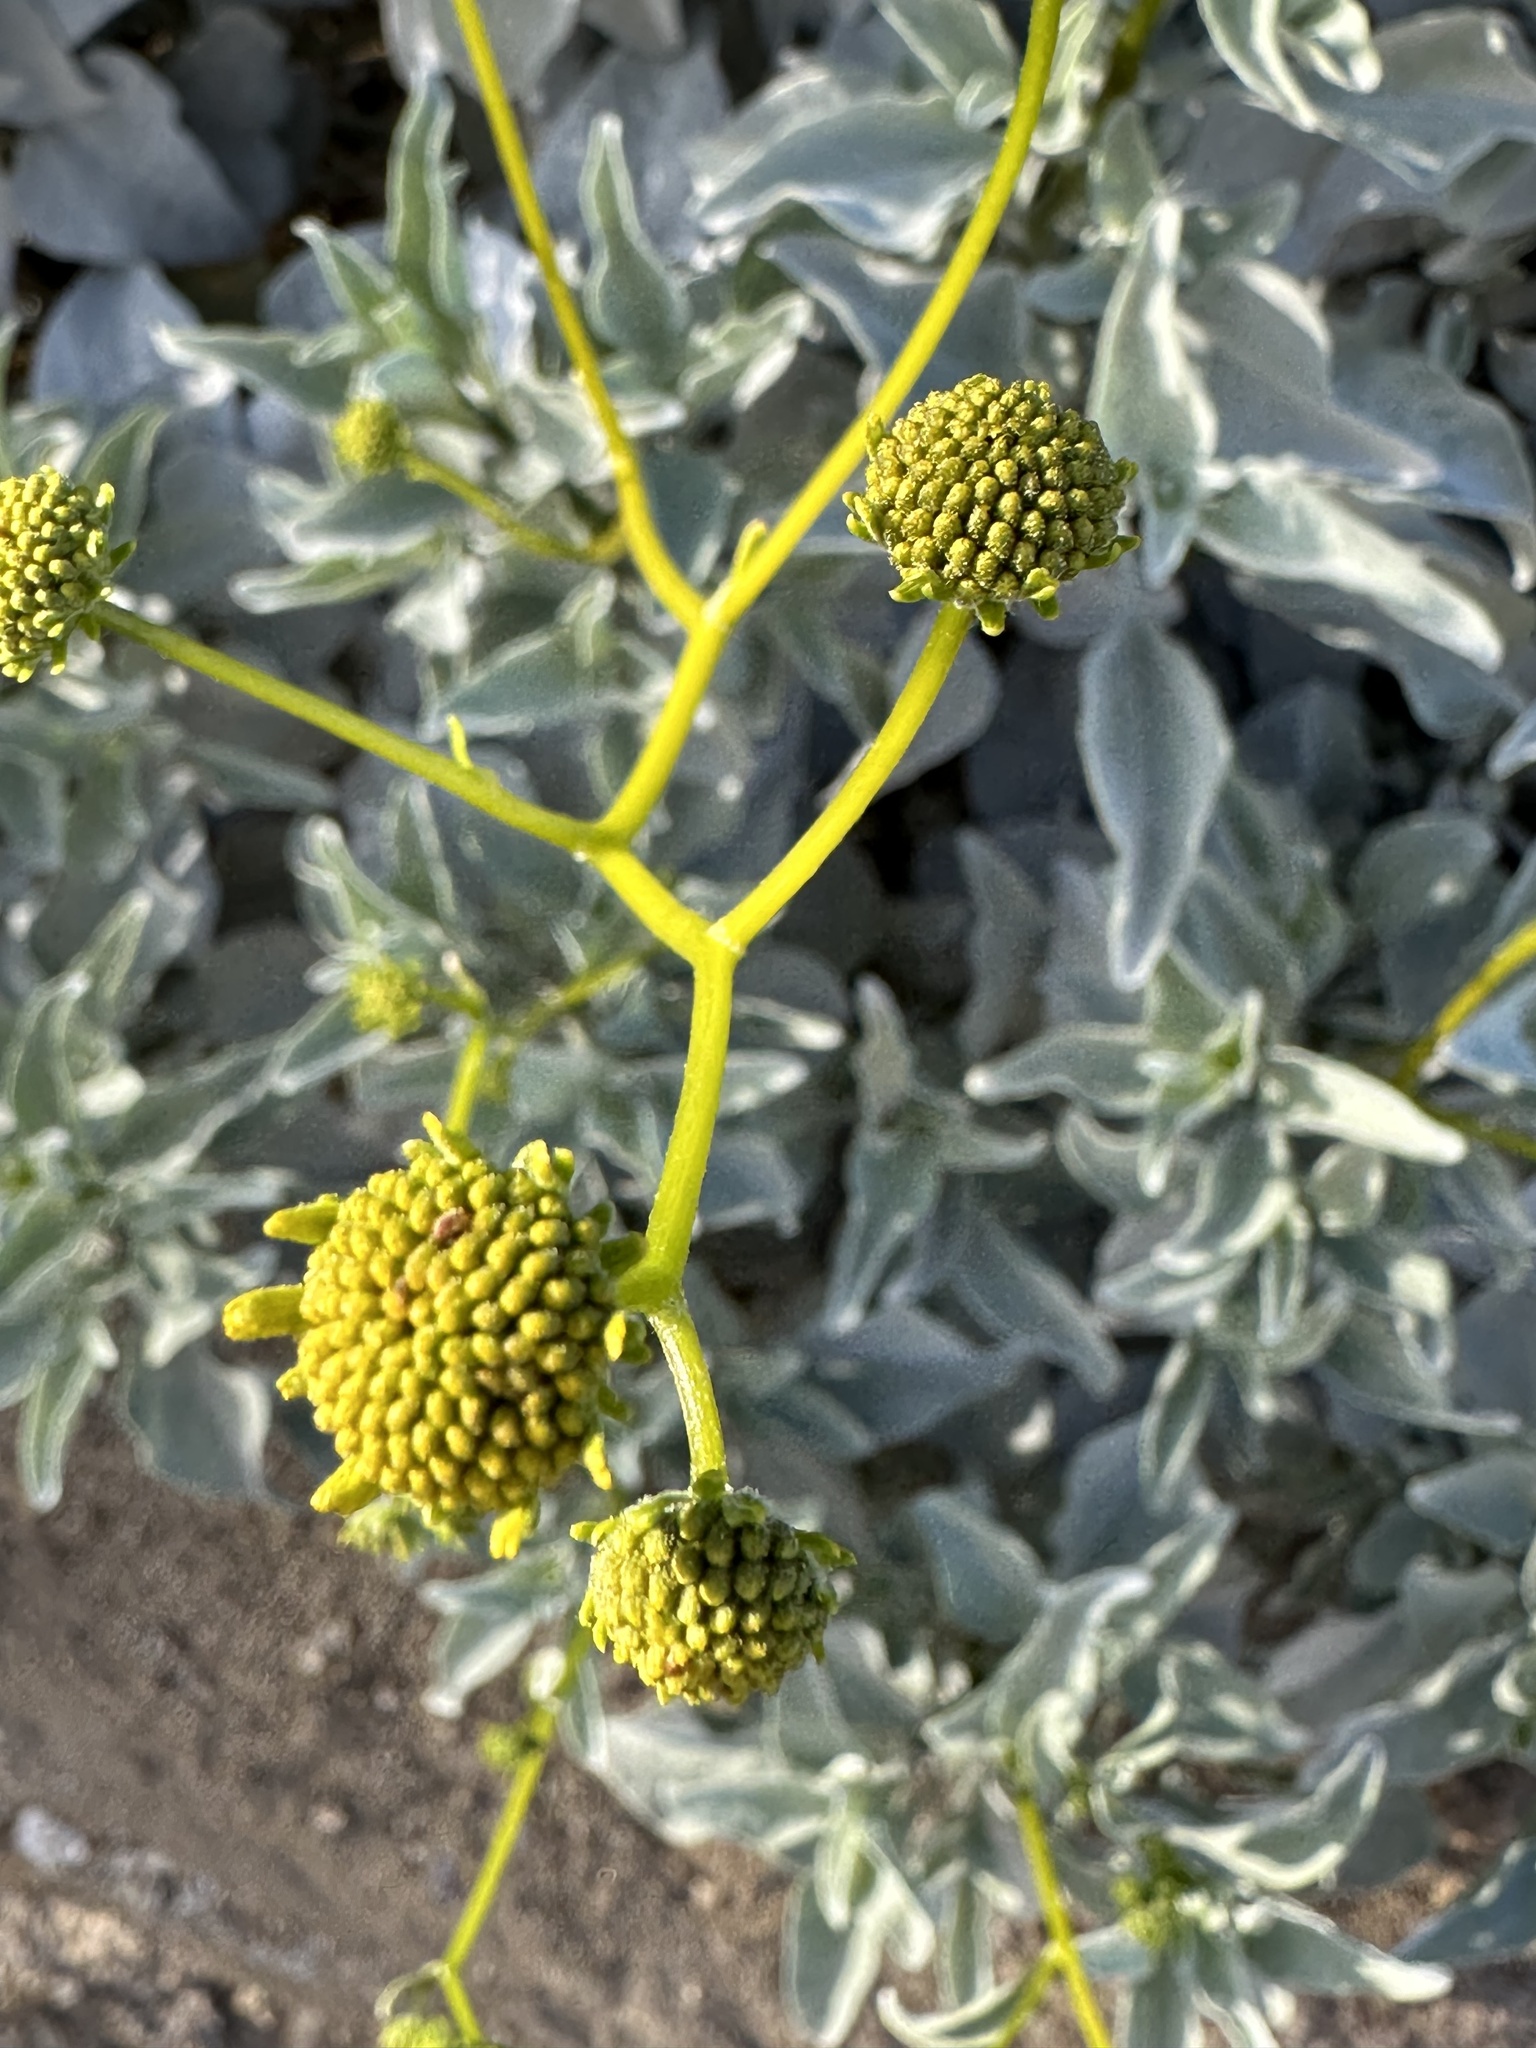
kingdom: Plantae
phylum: Tracheophyta
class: Magnoliopsida
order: Asterales
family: Asteraceae
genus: Encelia
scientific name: Encelia farinosa
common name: Brittlebush
